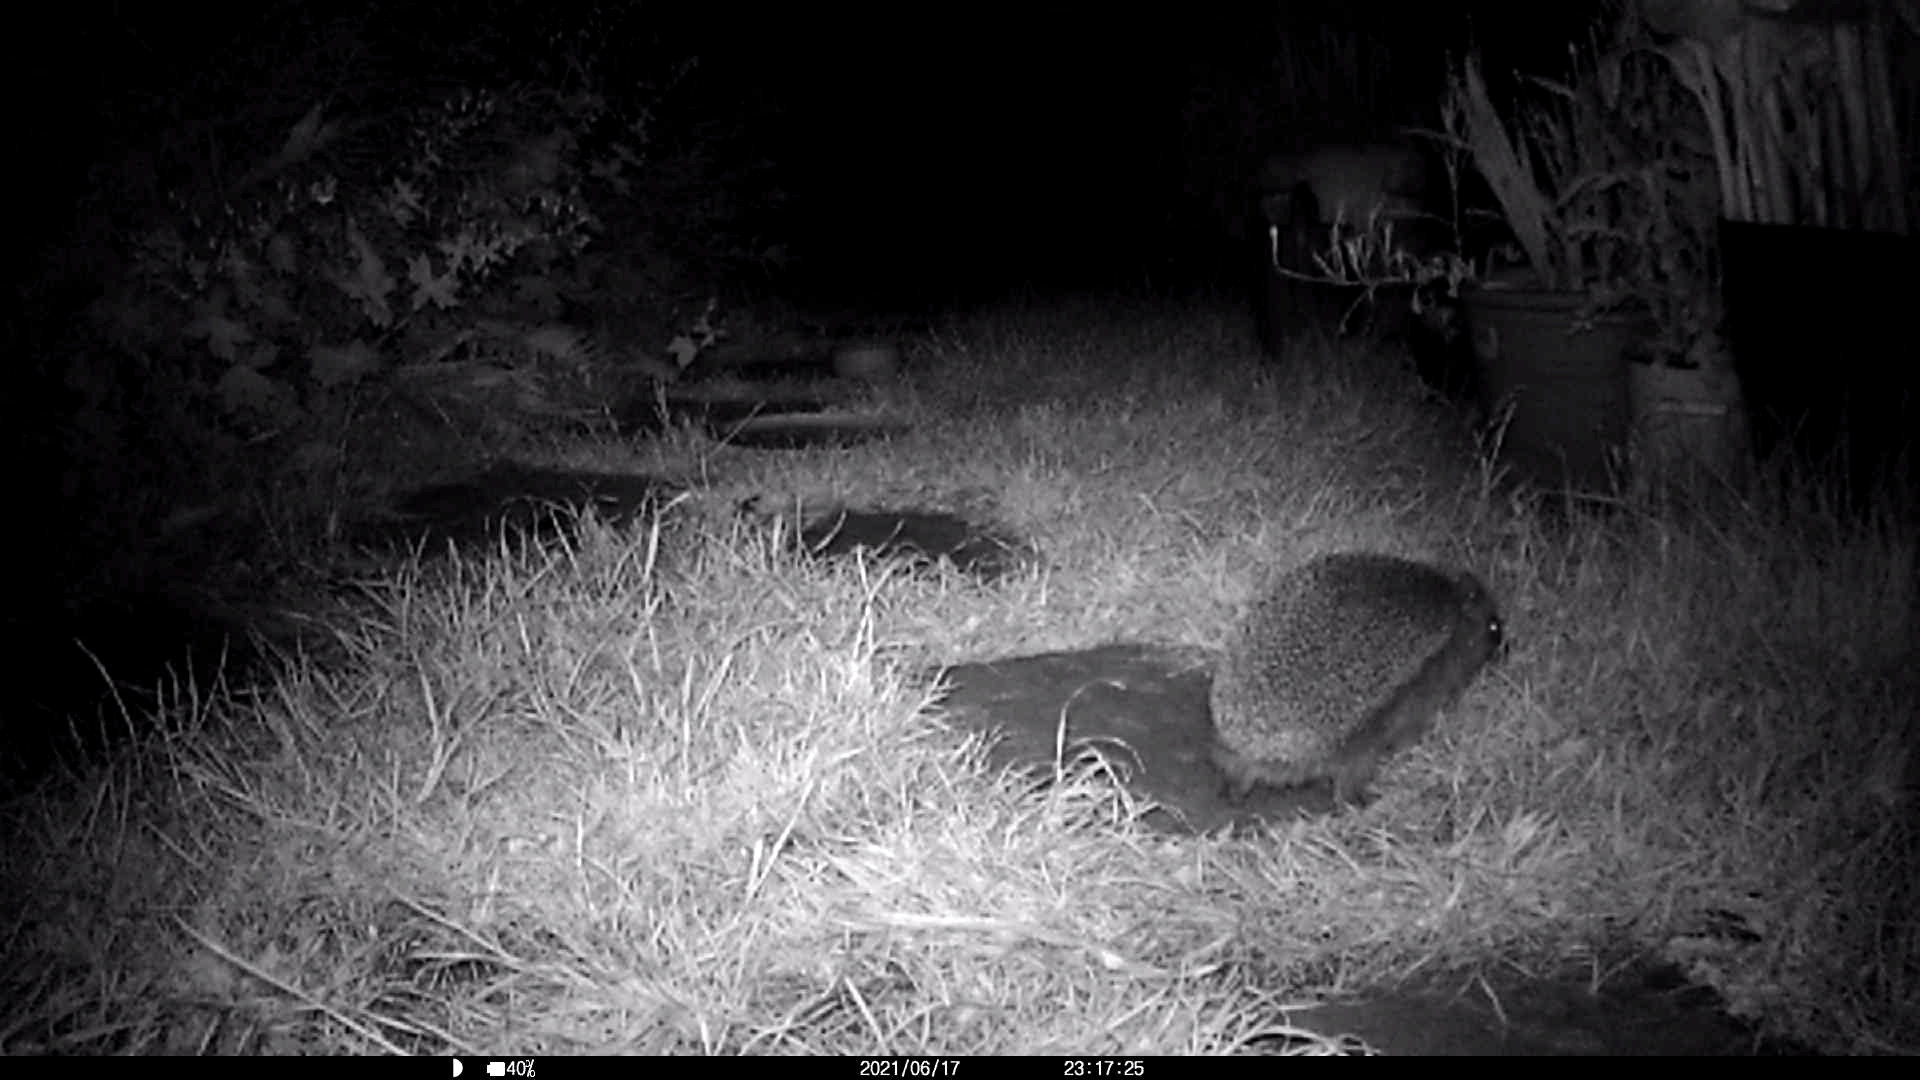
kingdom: Animalia
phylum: Chordata
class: Mammalia
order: Erinaceomorpha
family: Erinaceidae
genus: Erinaceus
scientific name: Erinaceus europaeus
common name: West european hedgehog
